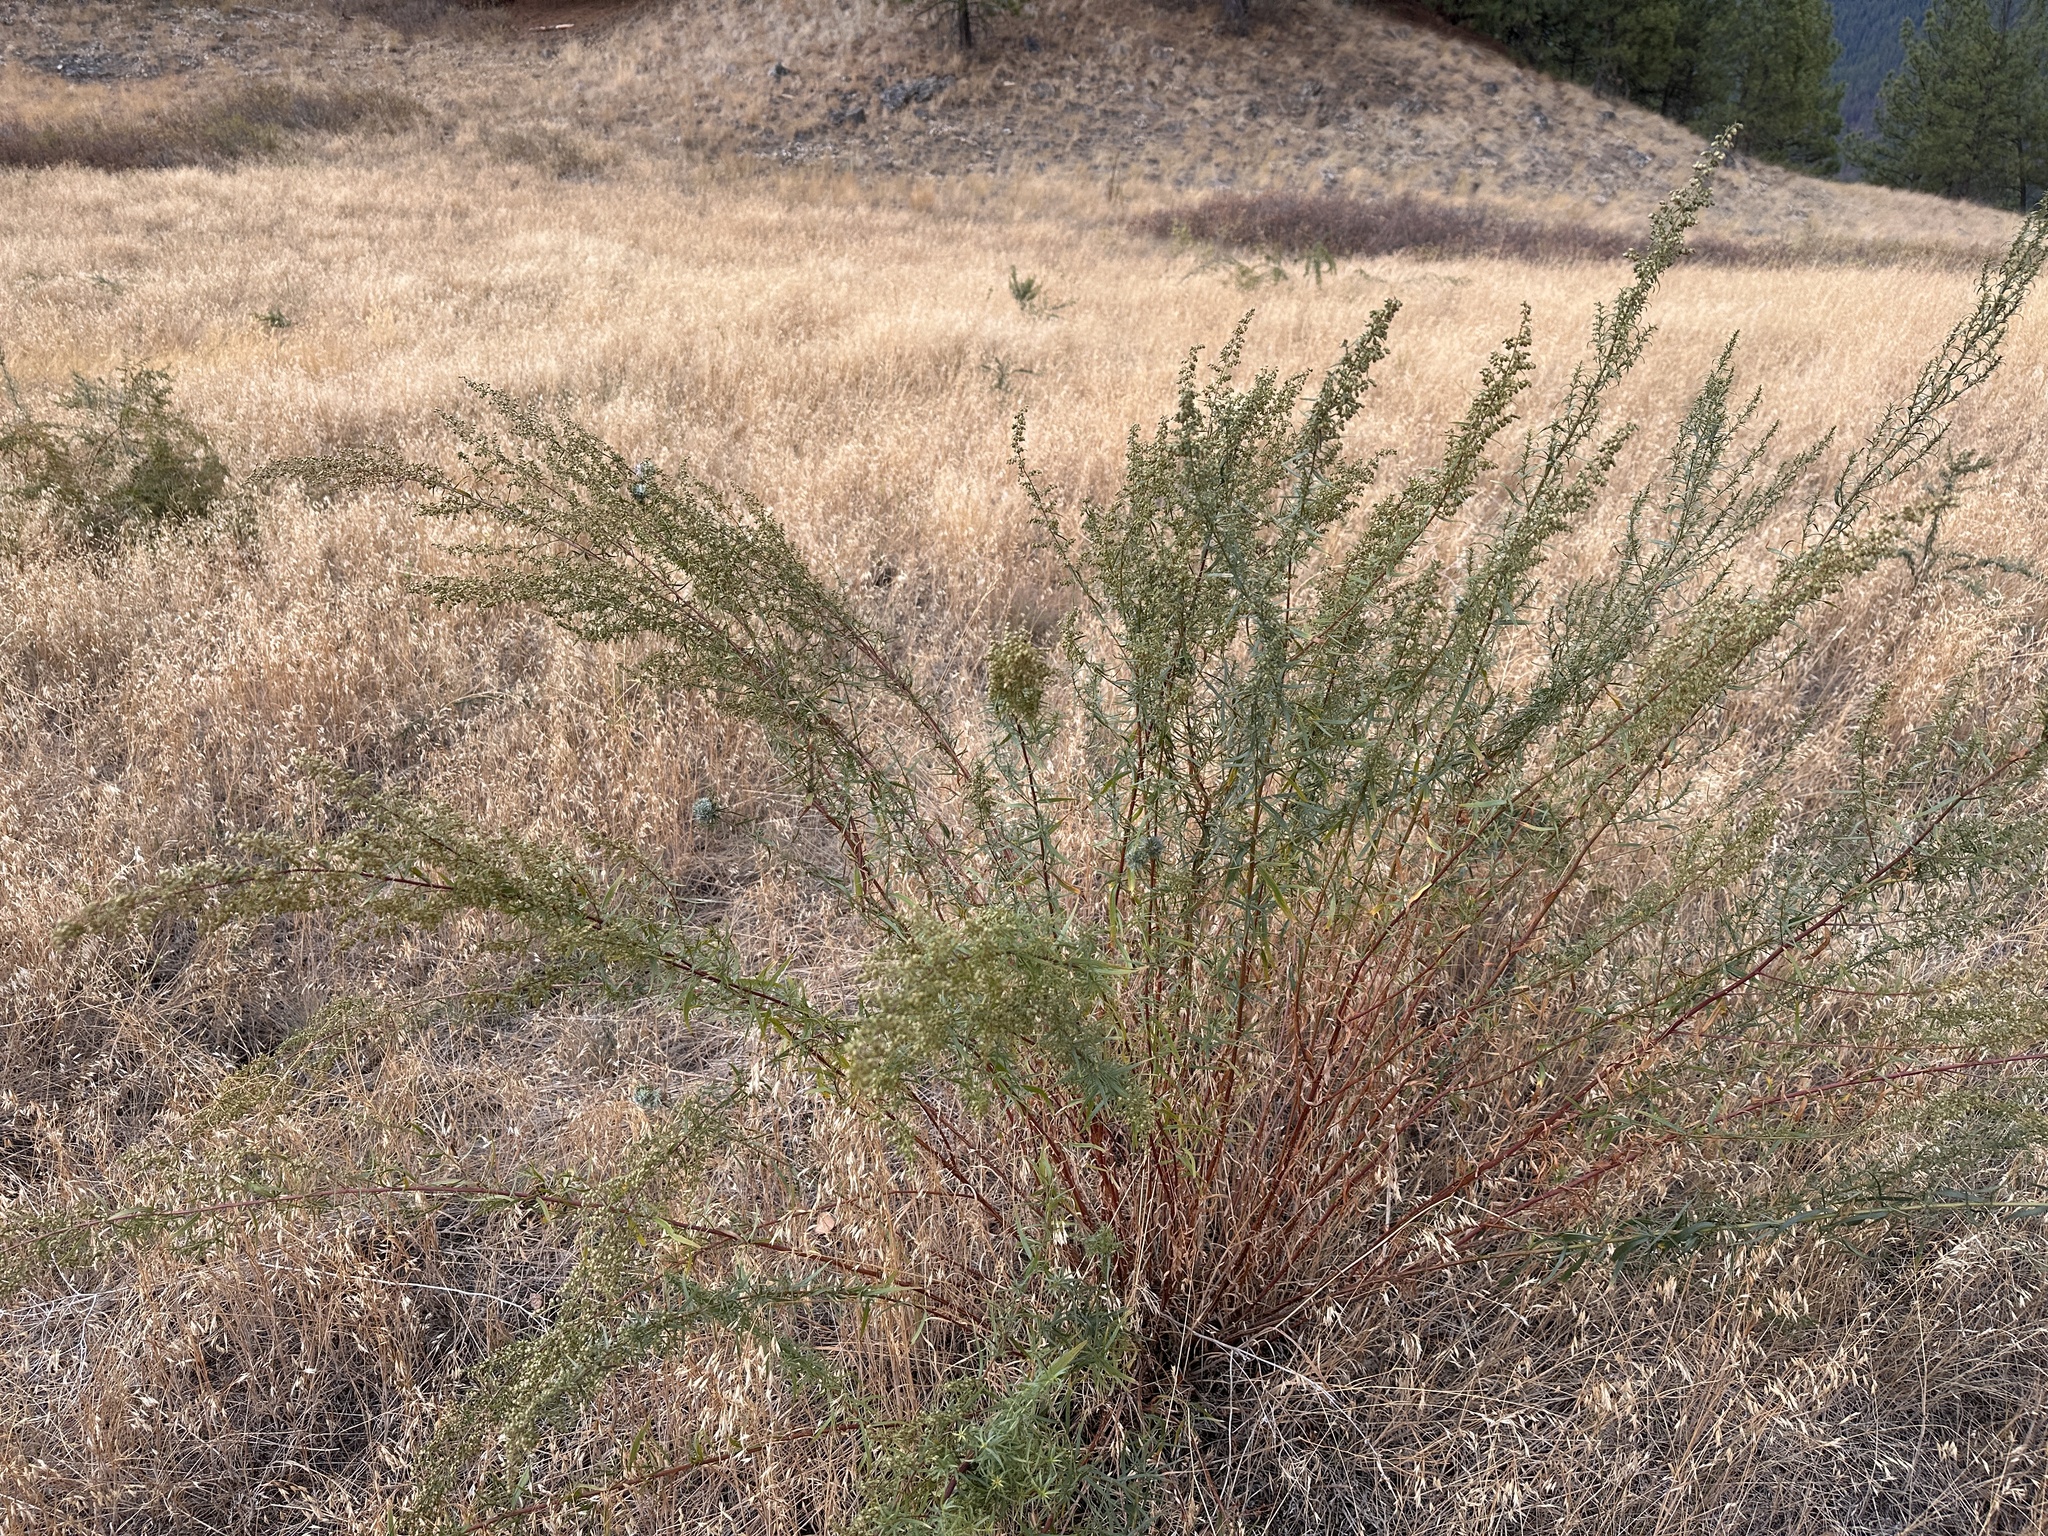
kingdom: Plantae
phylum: Tracheophyta
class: Magnoliopsida
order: Asterales
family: Asteraceae
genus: Artemisia
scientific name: Artemisia dracunculus
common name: Tarragon
